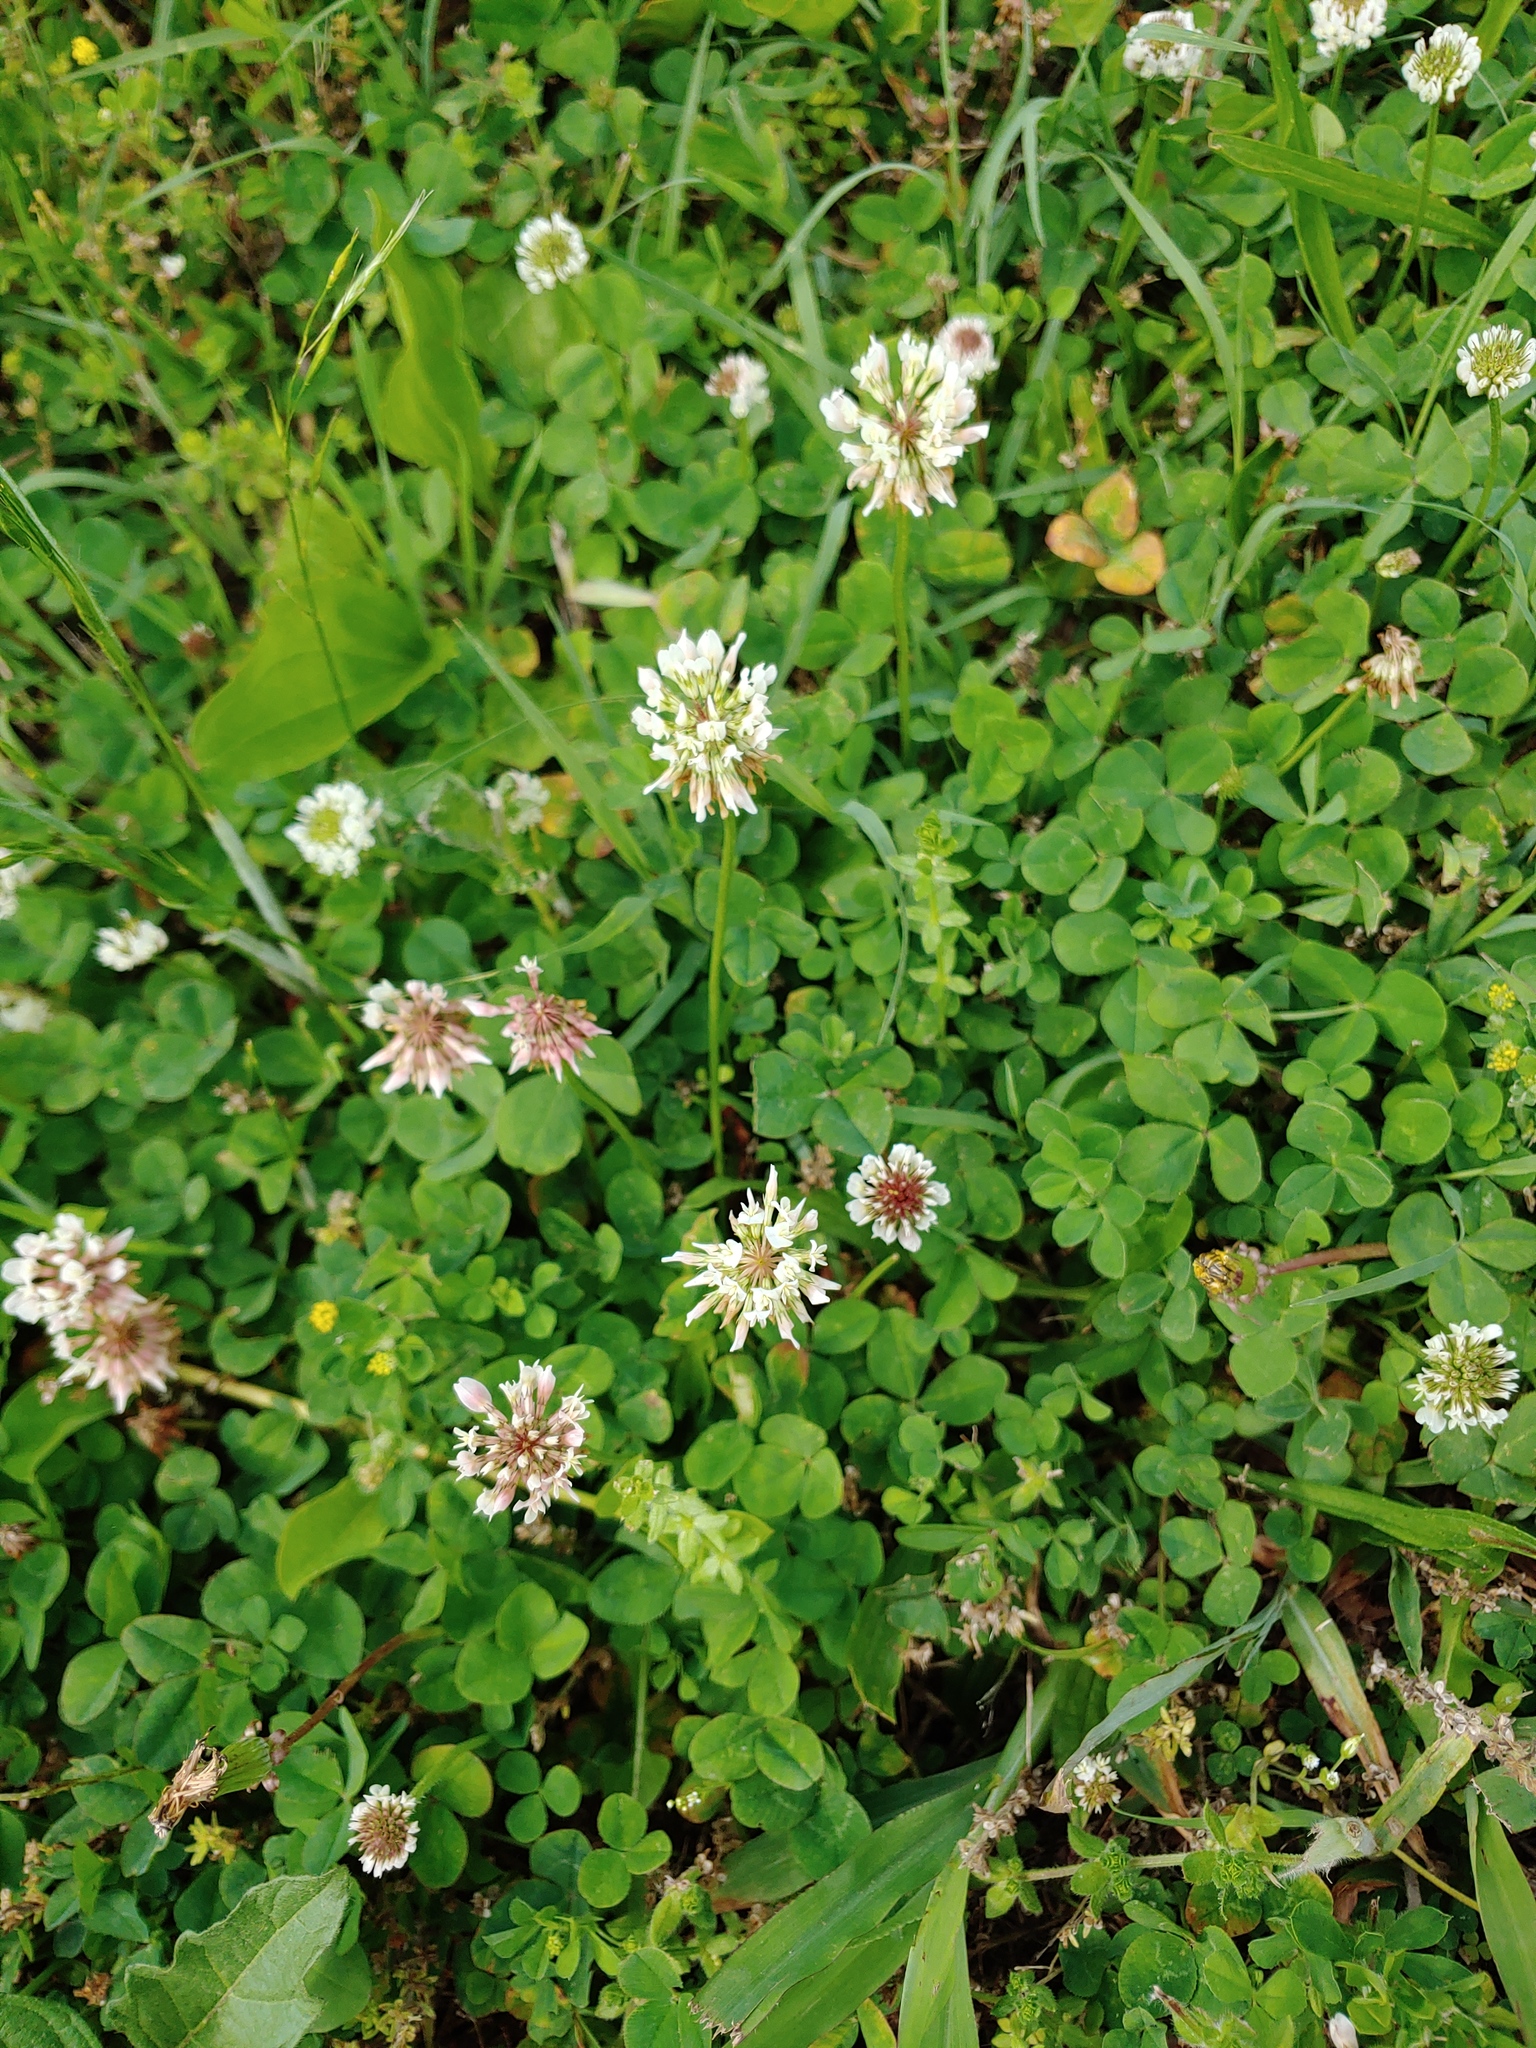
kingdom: Plantae
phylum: Tracheophyta
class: Magnoliopsida
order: Fabales
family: Fabaceae
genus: Trifolium
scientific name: Trifolium repens
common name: White clover
